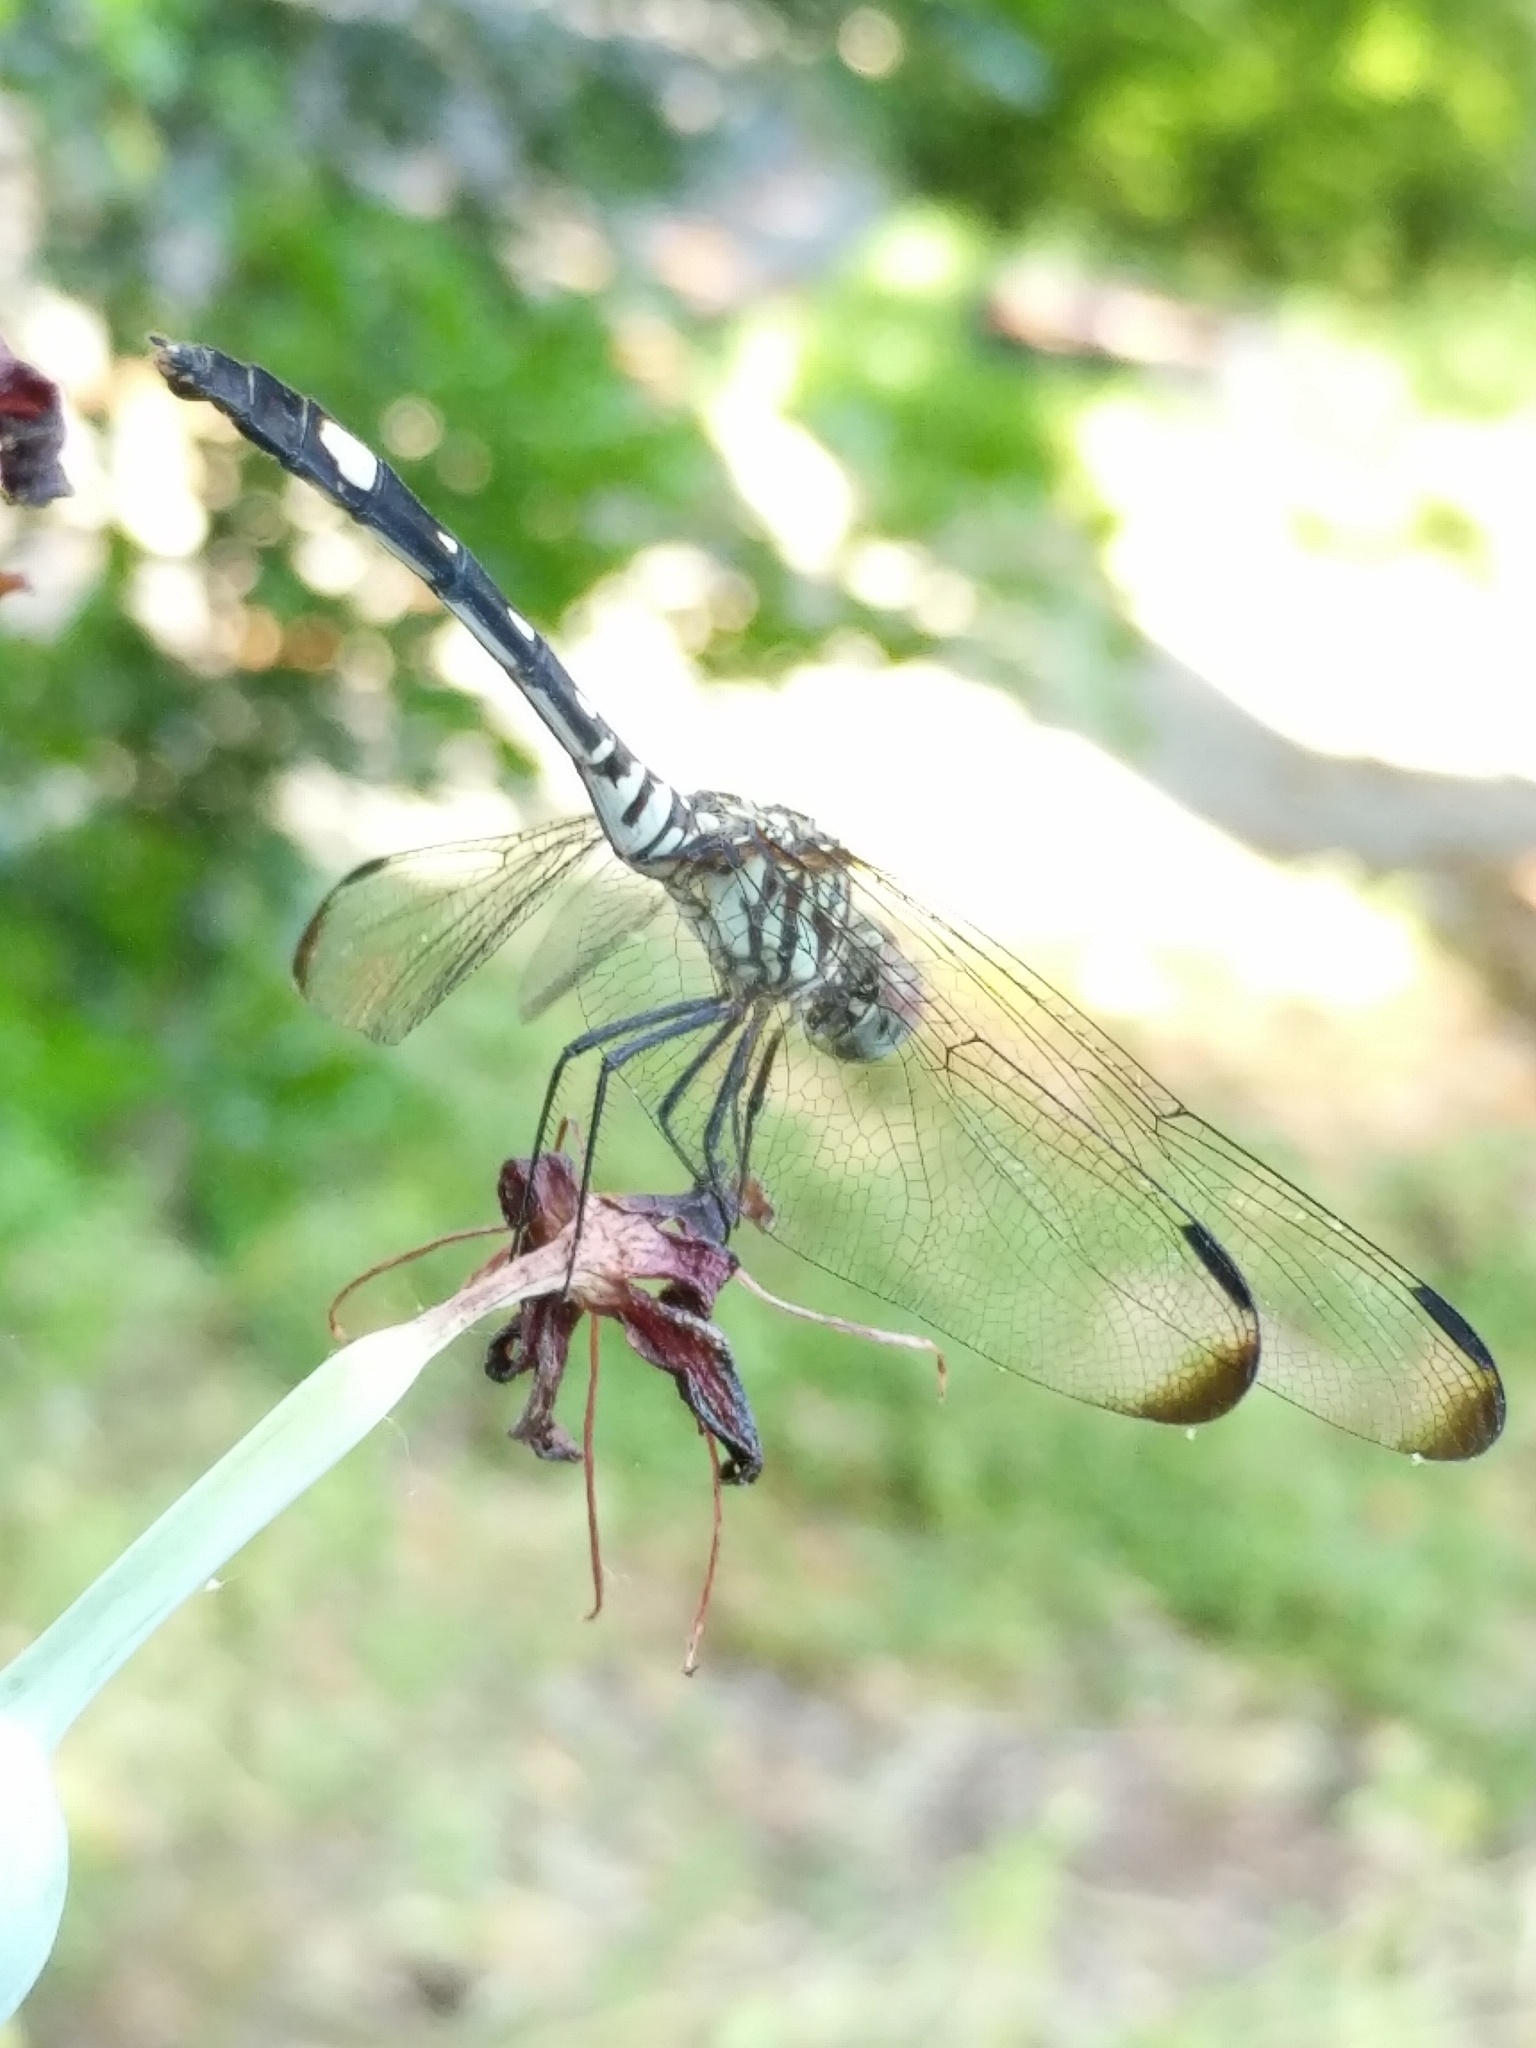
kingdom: Animalia
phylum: Arthropoda
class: Insecta
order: Odonata
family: Libellulidae
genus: Dythemis
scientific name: Dythemis velox
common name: Swift setwing
